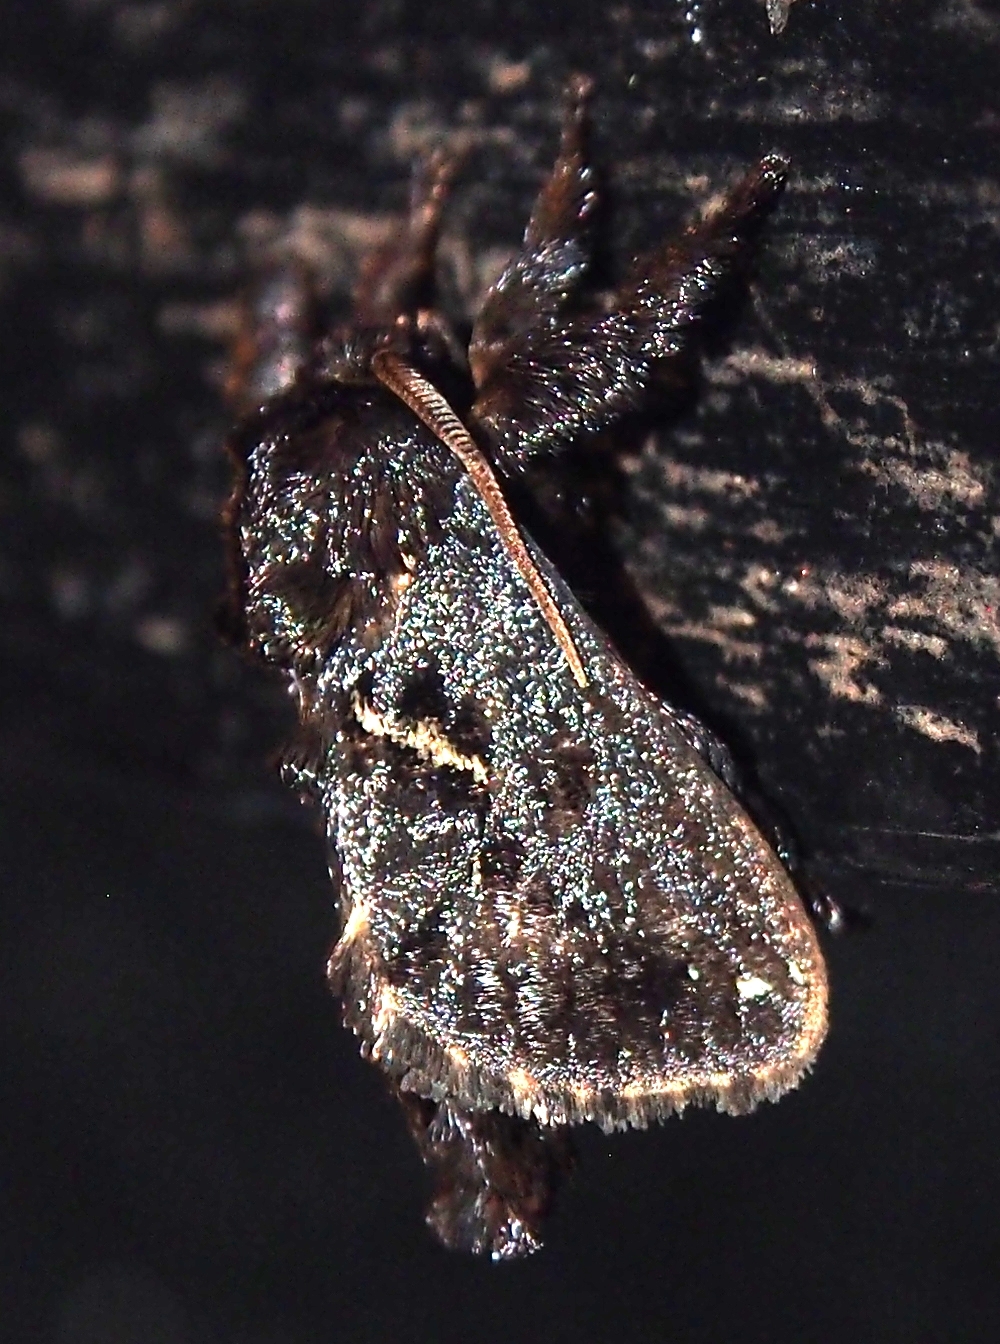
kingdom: Animalia
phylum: Arthropoda
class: Insecta
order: Lepidoptera
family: Limacodidae
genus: Euclea
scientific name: Euclea plugma
